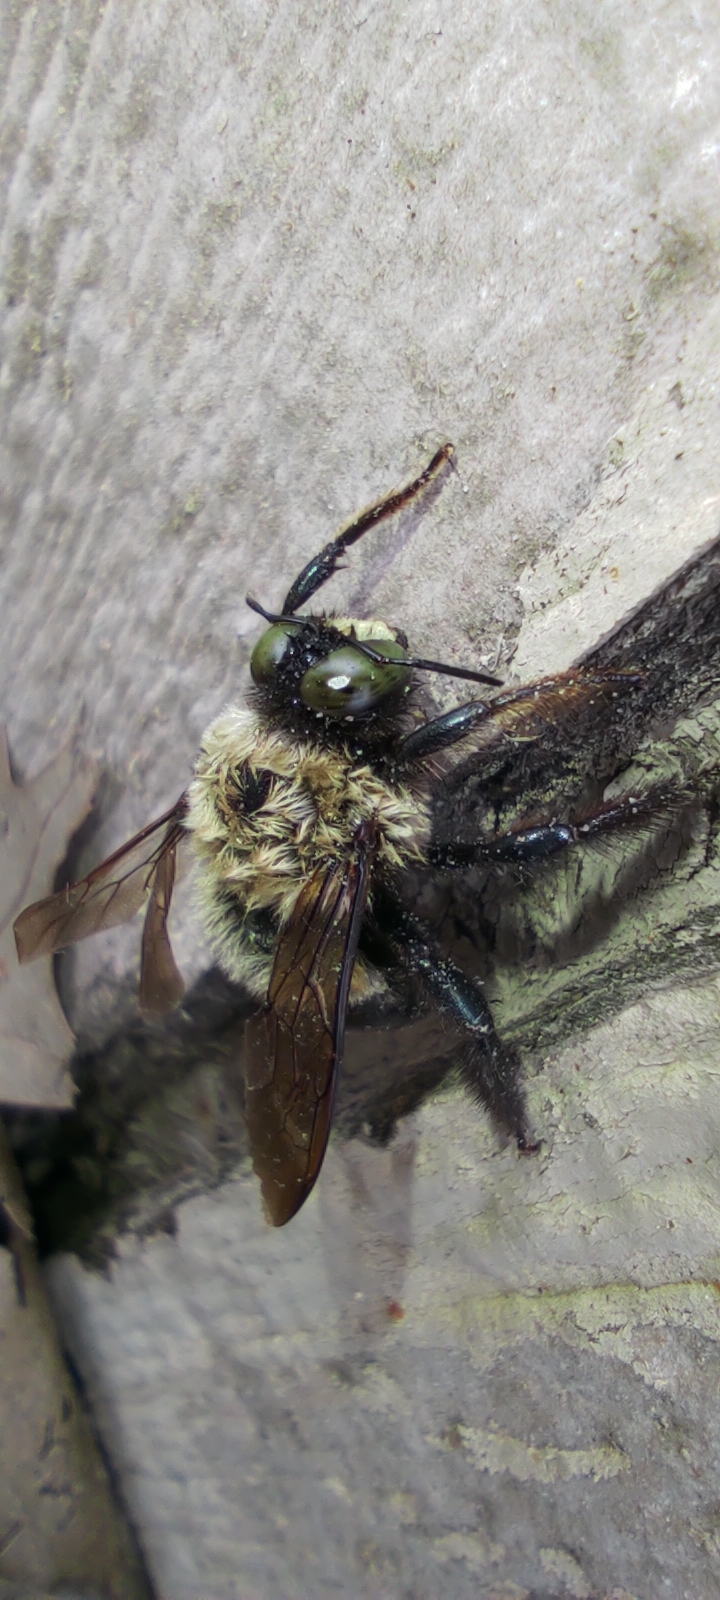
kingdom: Animalia
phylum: Arthropoda
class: Insecta
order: Hymenoptera
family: Apidae
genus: Xylocopa
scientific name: Xylocopa virginica
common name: Carpenter bee
